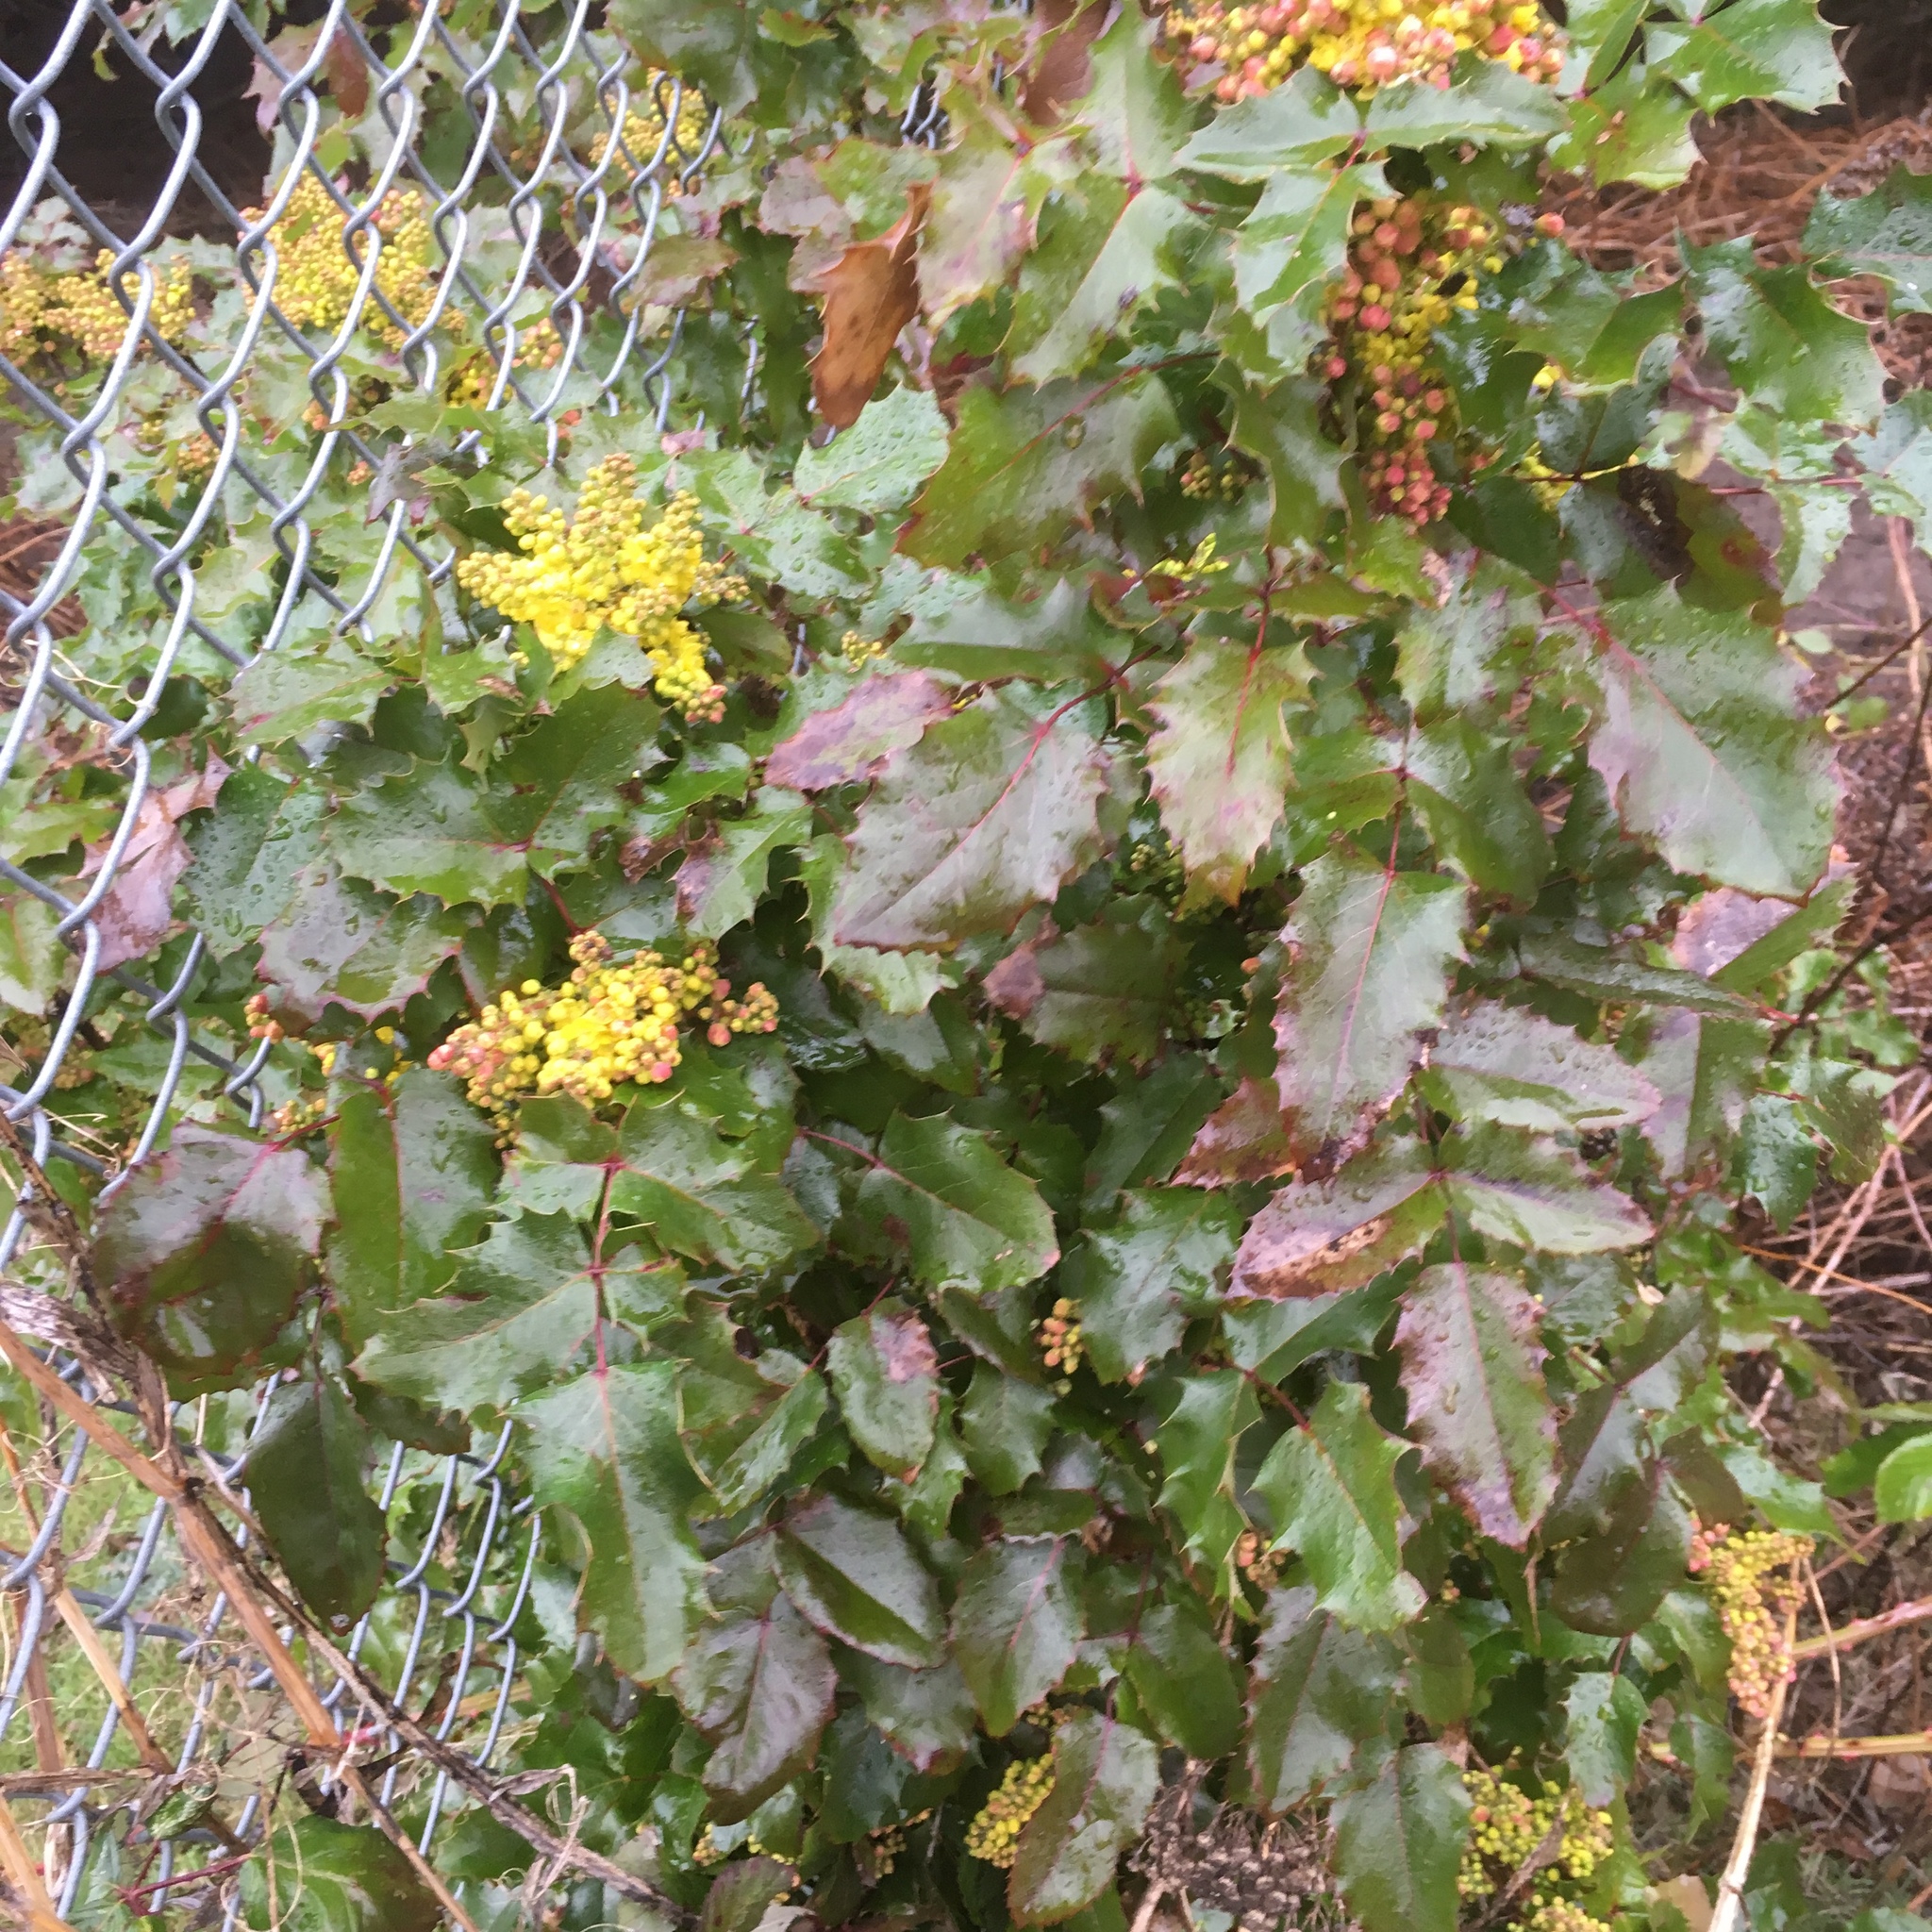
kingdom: Plantae
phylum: Tracheophyta
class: Magnoliopsida
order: Ranunculales
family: Berberidaceae
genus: Mahonia
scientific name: Mahonia aquifolium
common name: Oregon-grape
